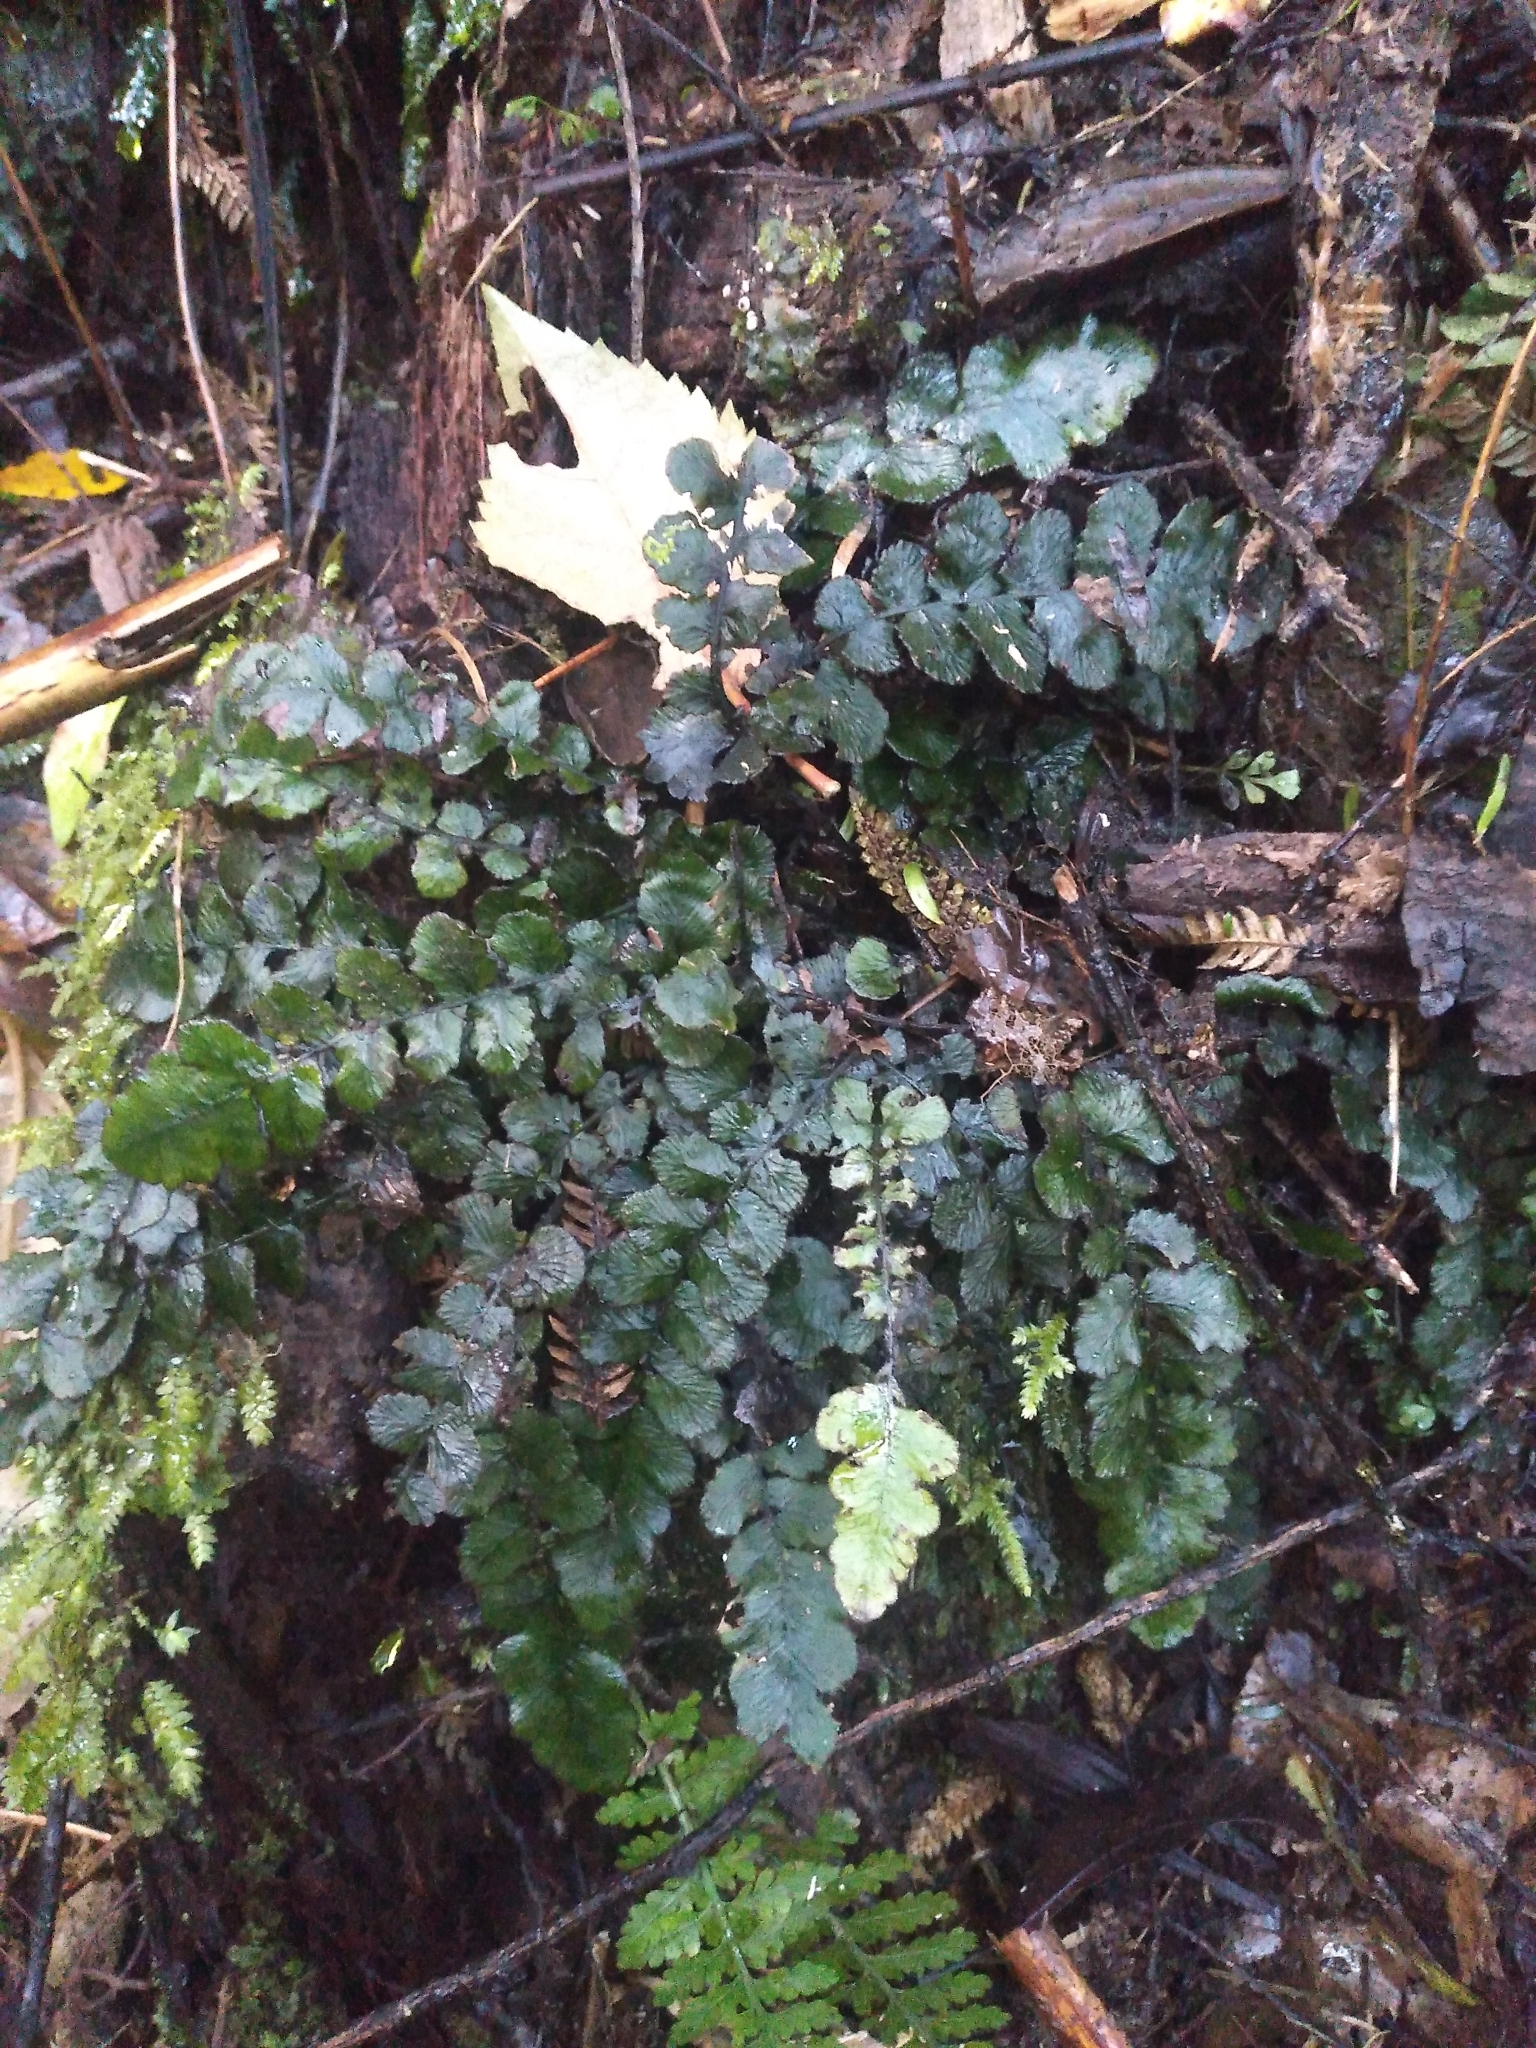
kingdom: Plantae
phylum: Tracheophyta
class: Polypodiopsida
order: Polypodiales
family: Blechnaceae
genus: Cranfillia
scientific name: Cranfillia nigra
